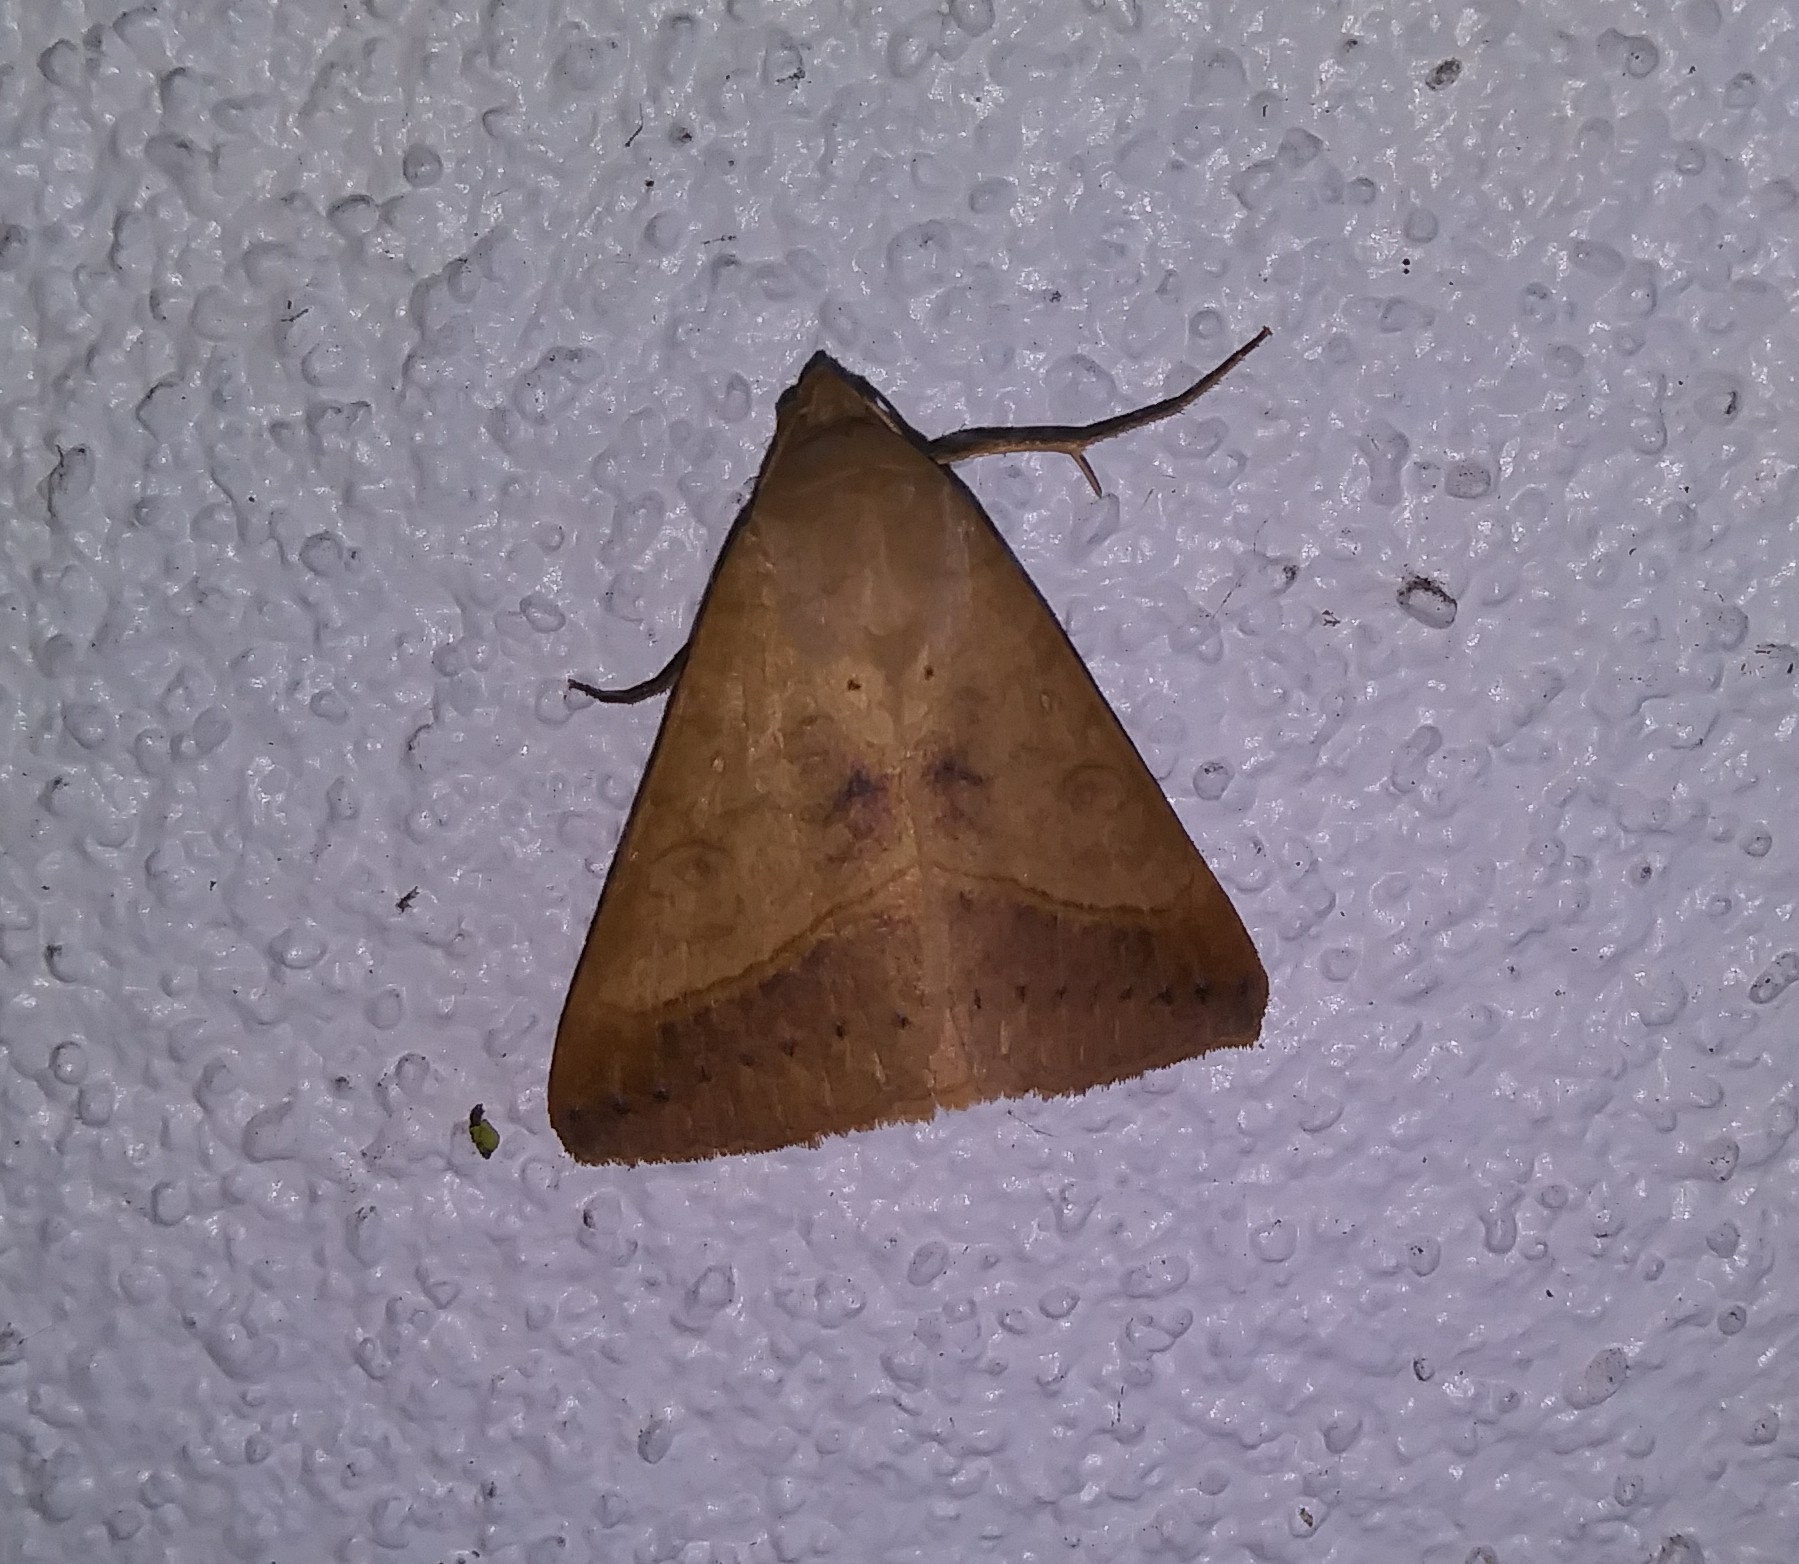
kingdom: Animalia
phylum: Arthropoda
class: Insecta
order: Lepidoptera
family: Erebidae
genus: Mocis
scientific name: Mocis marcida
